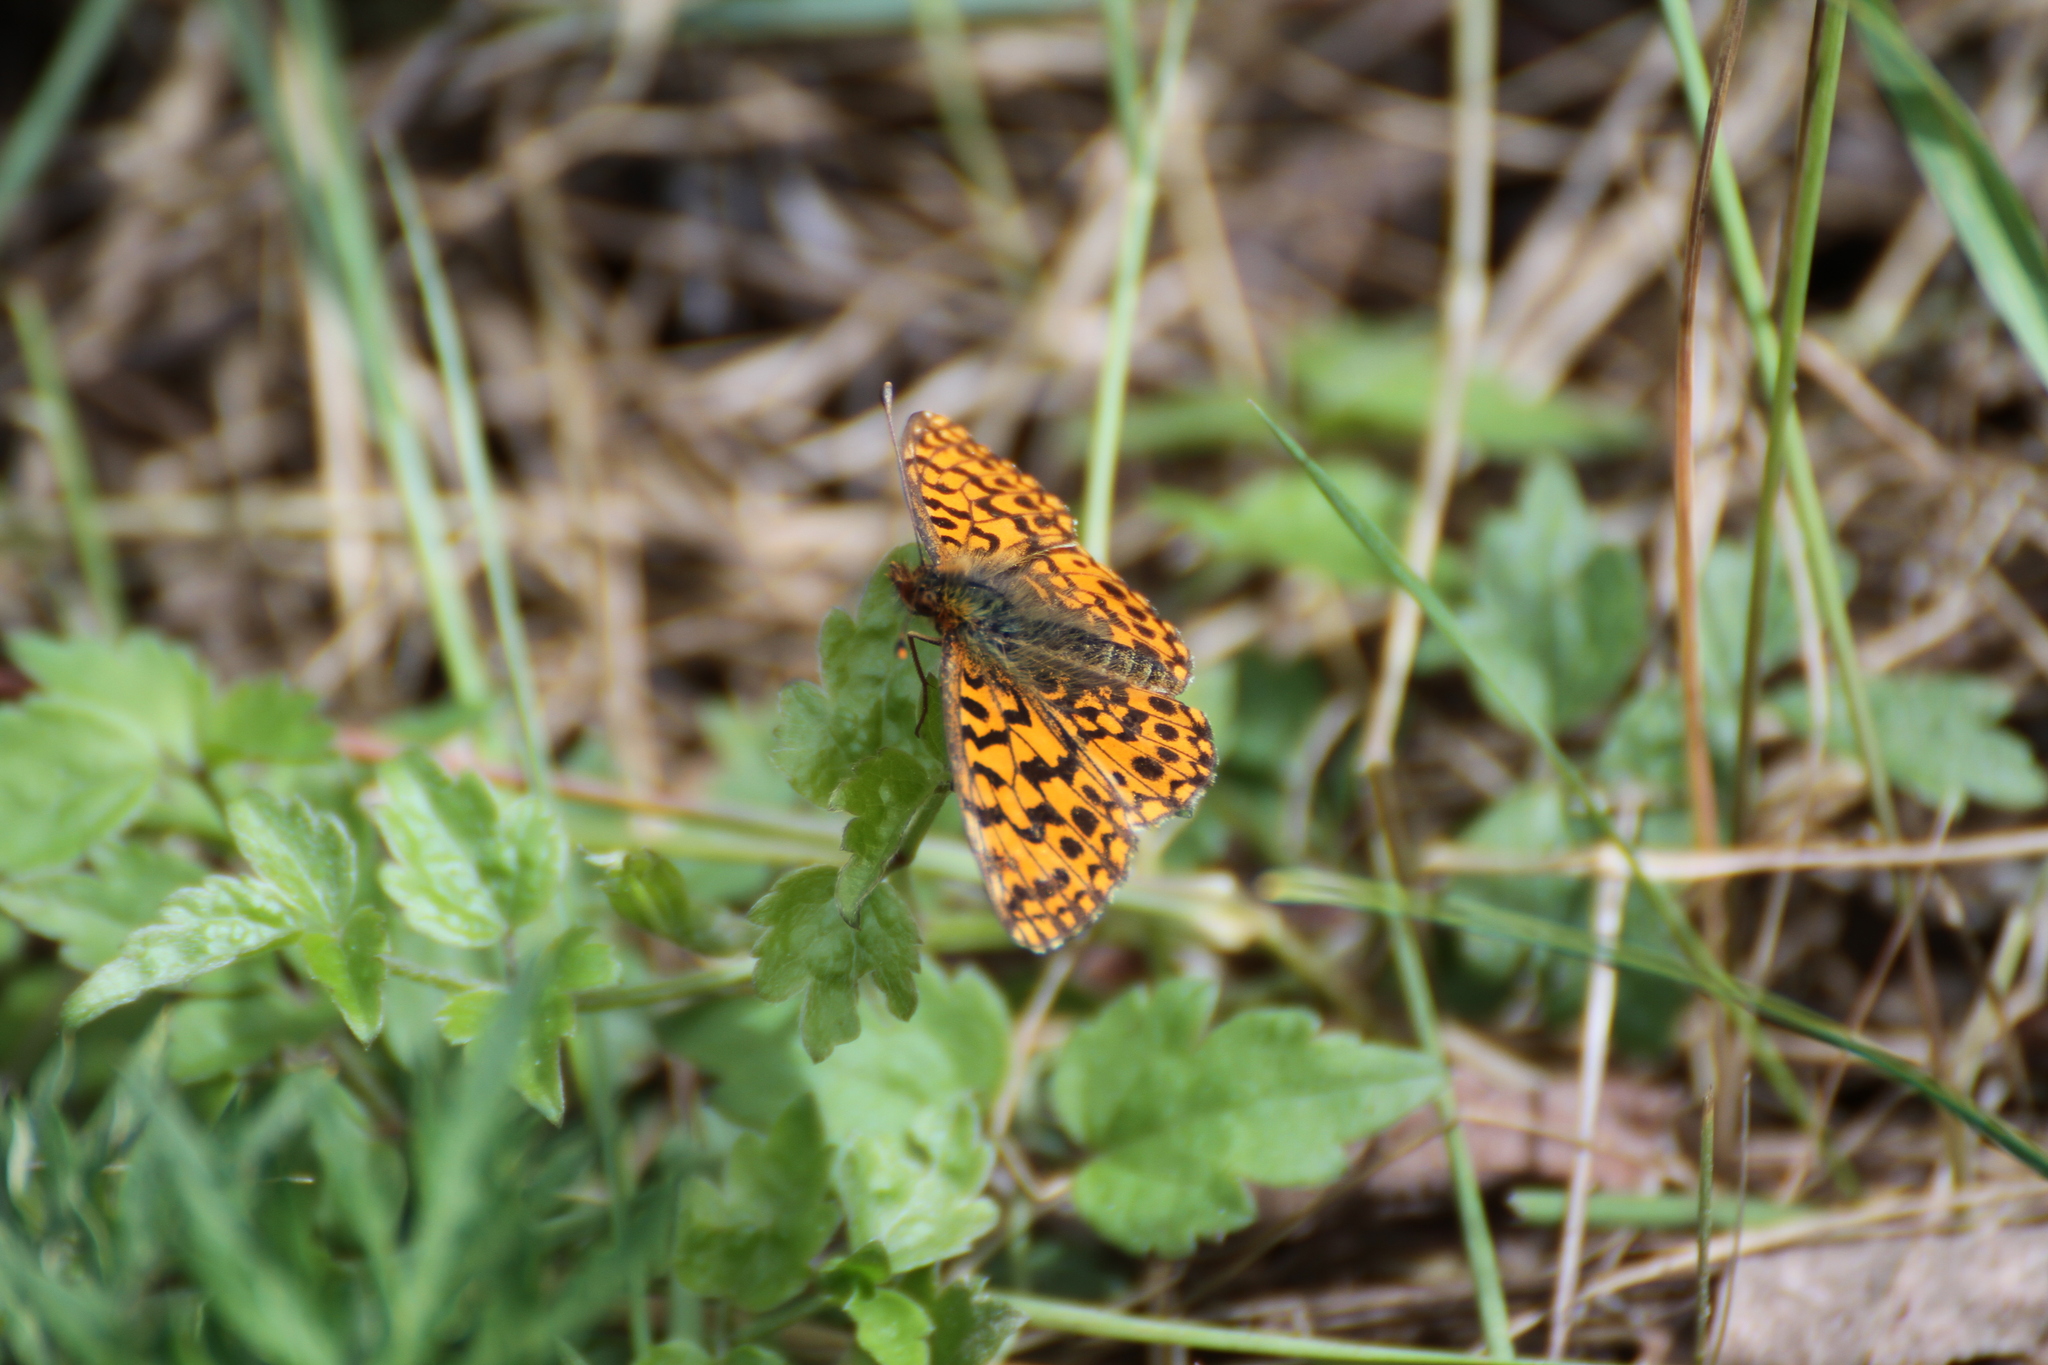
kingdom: Animalia
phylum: Arthropoda
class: Insecta
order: Lepidoptera
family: Nymphalidae
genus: Boloria
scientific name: Boloria dia
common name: Weaver's fritillary
